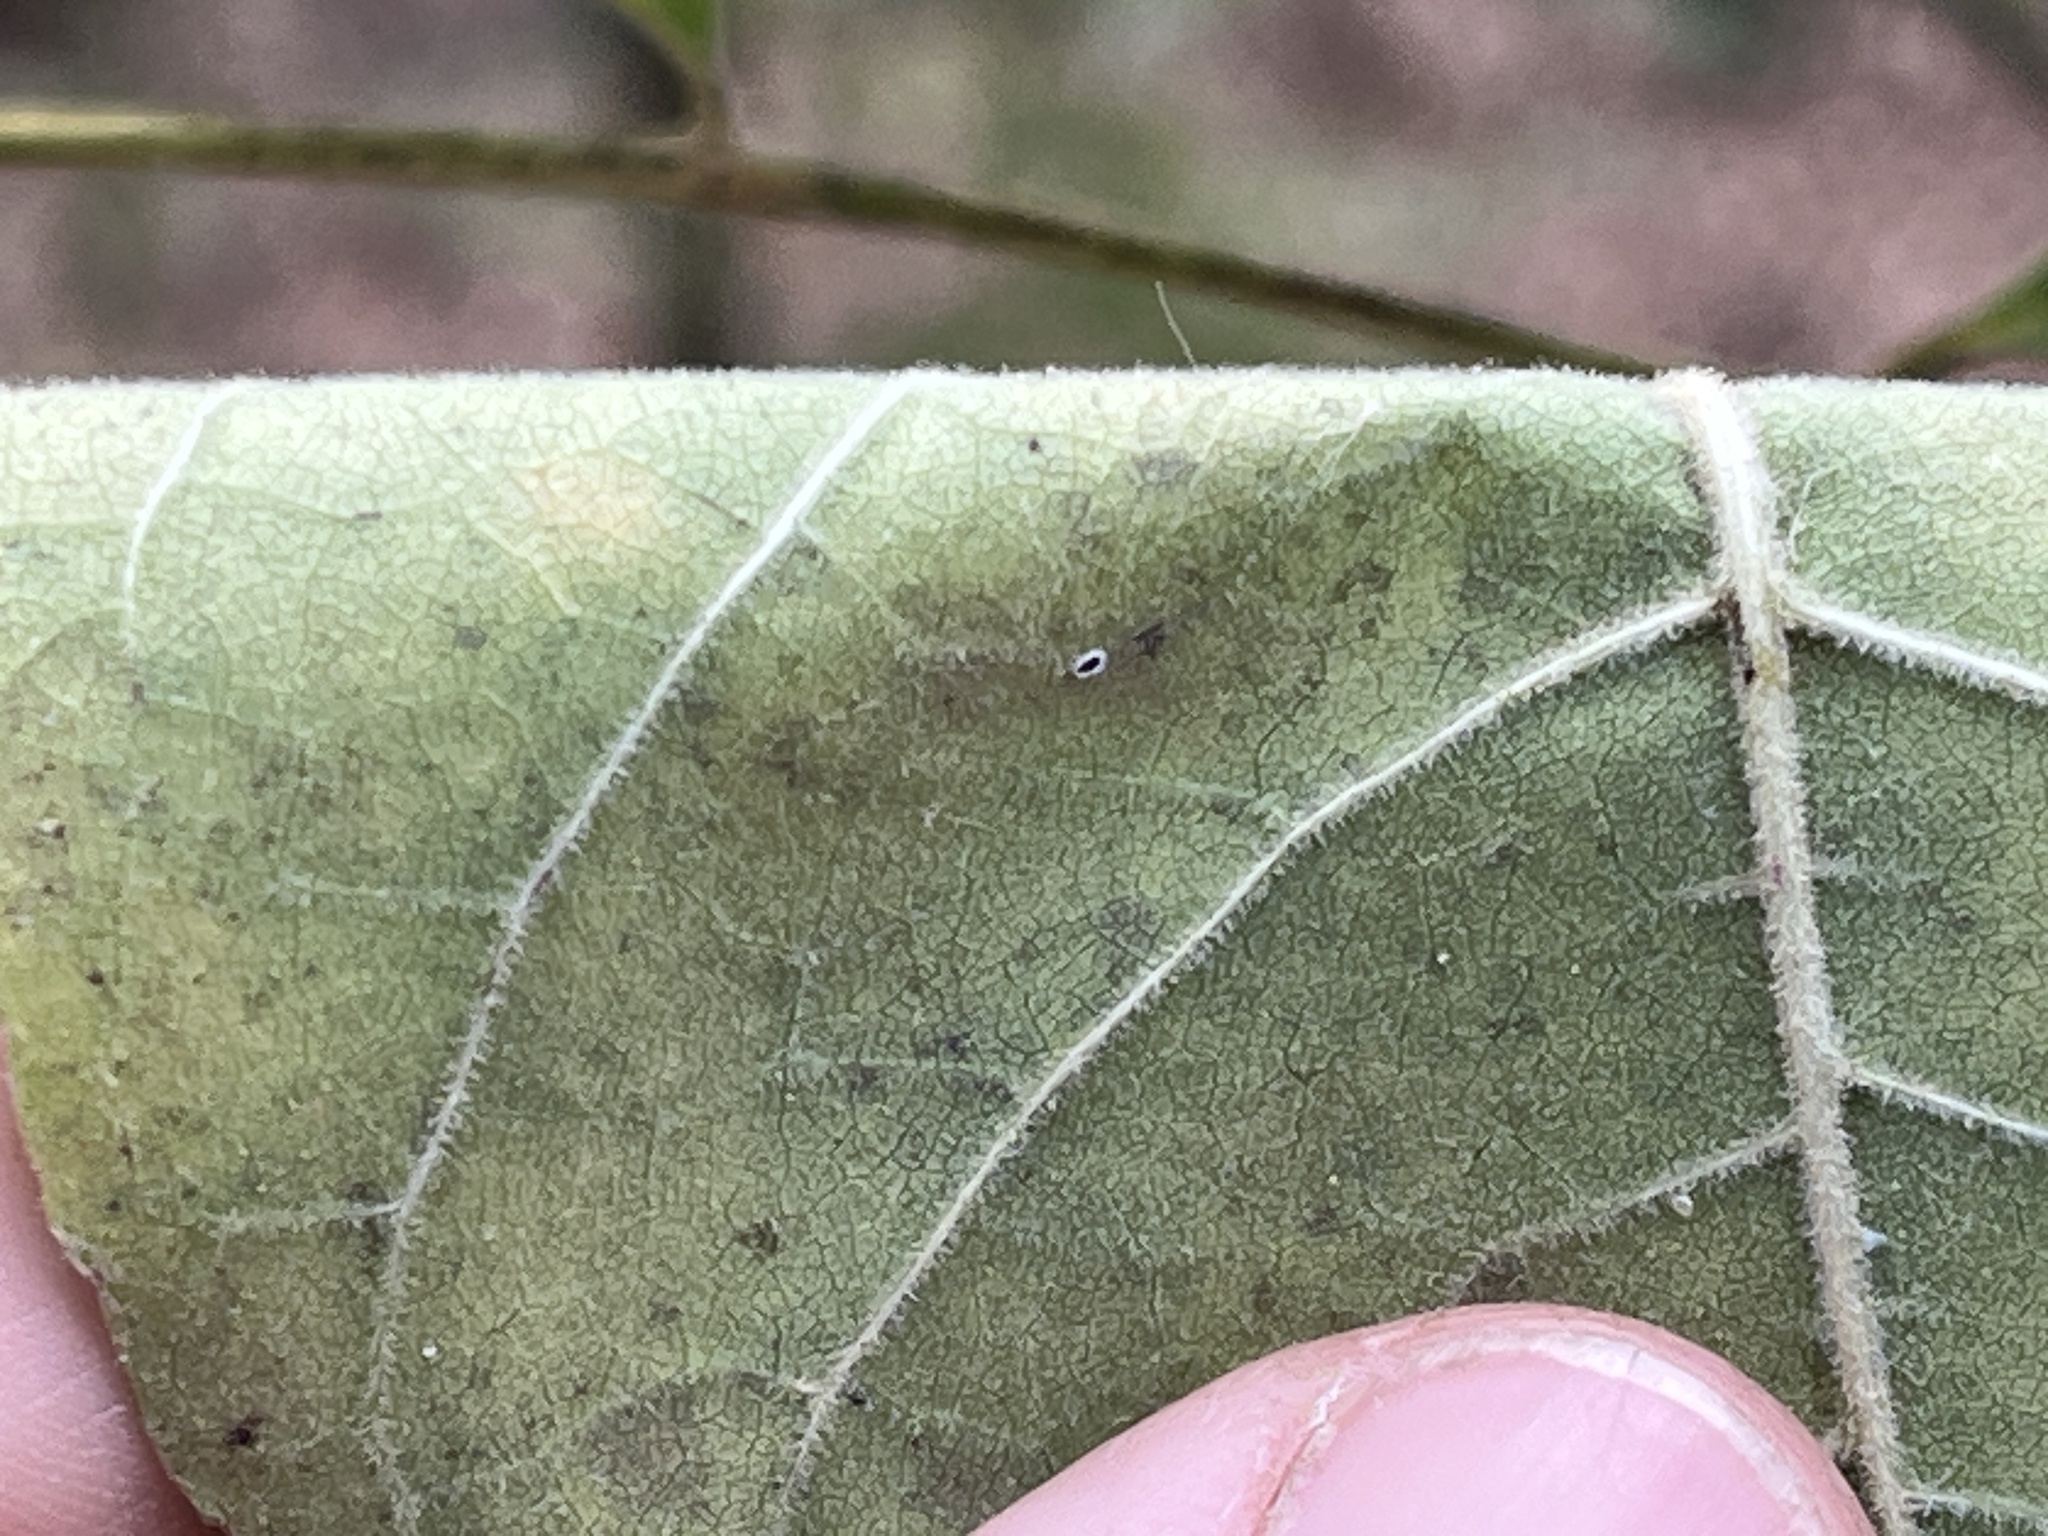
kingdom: Plantae
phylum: Tracheophyta
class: Magnoliopsida
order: Lamiales
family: Oleaceae
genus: Fraxinus
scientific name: Fraxinus profunda
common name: Pumpkin ash
